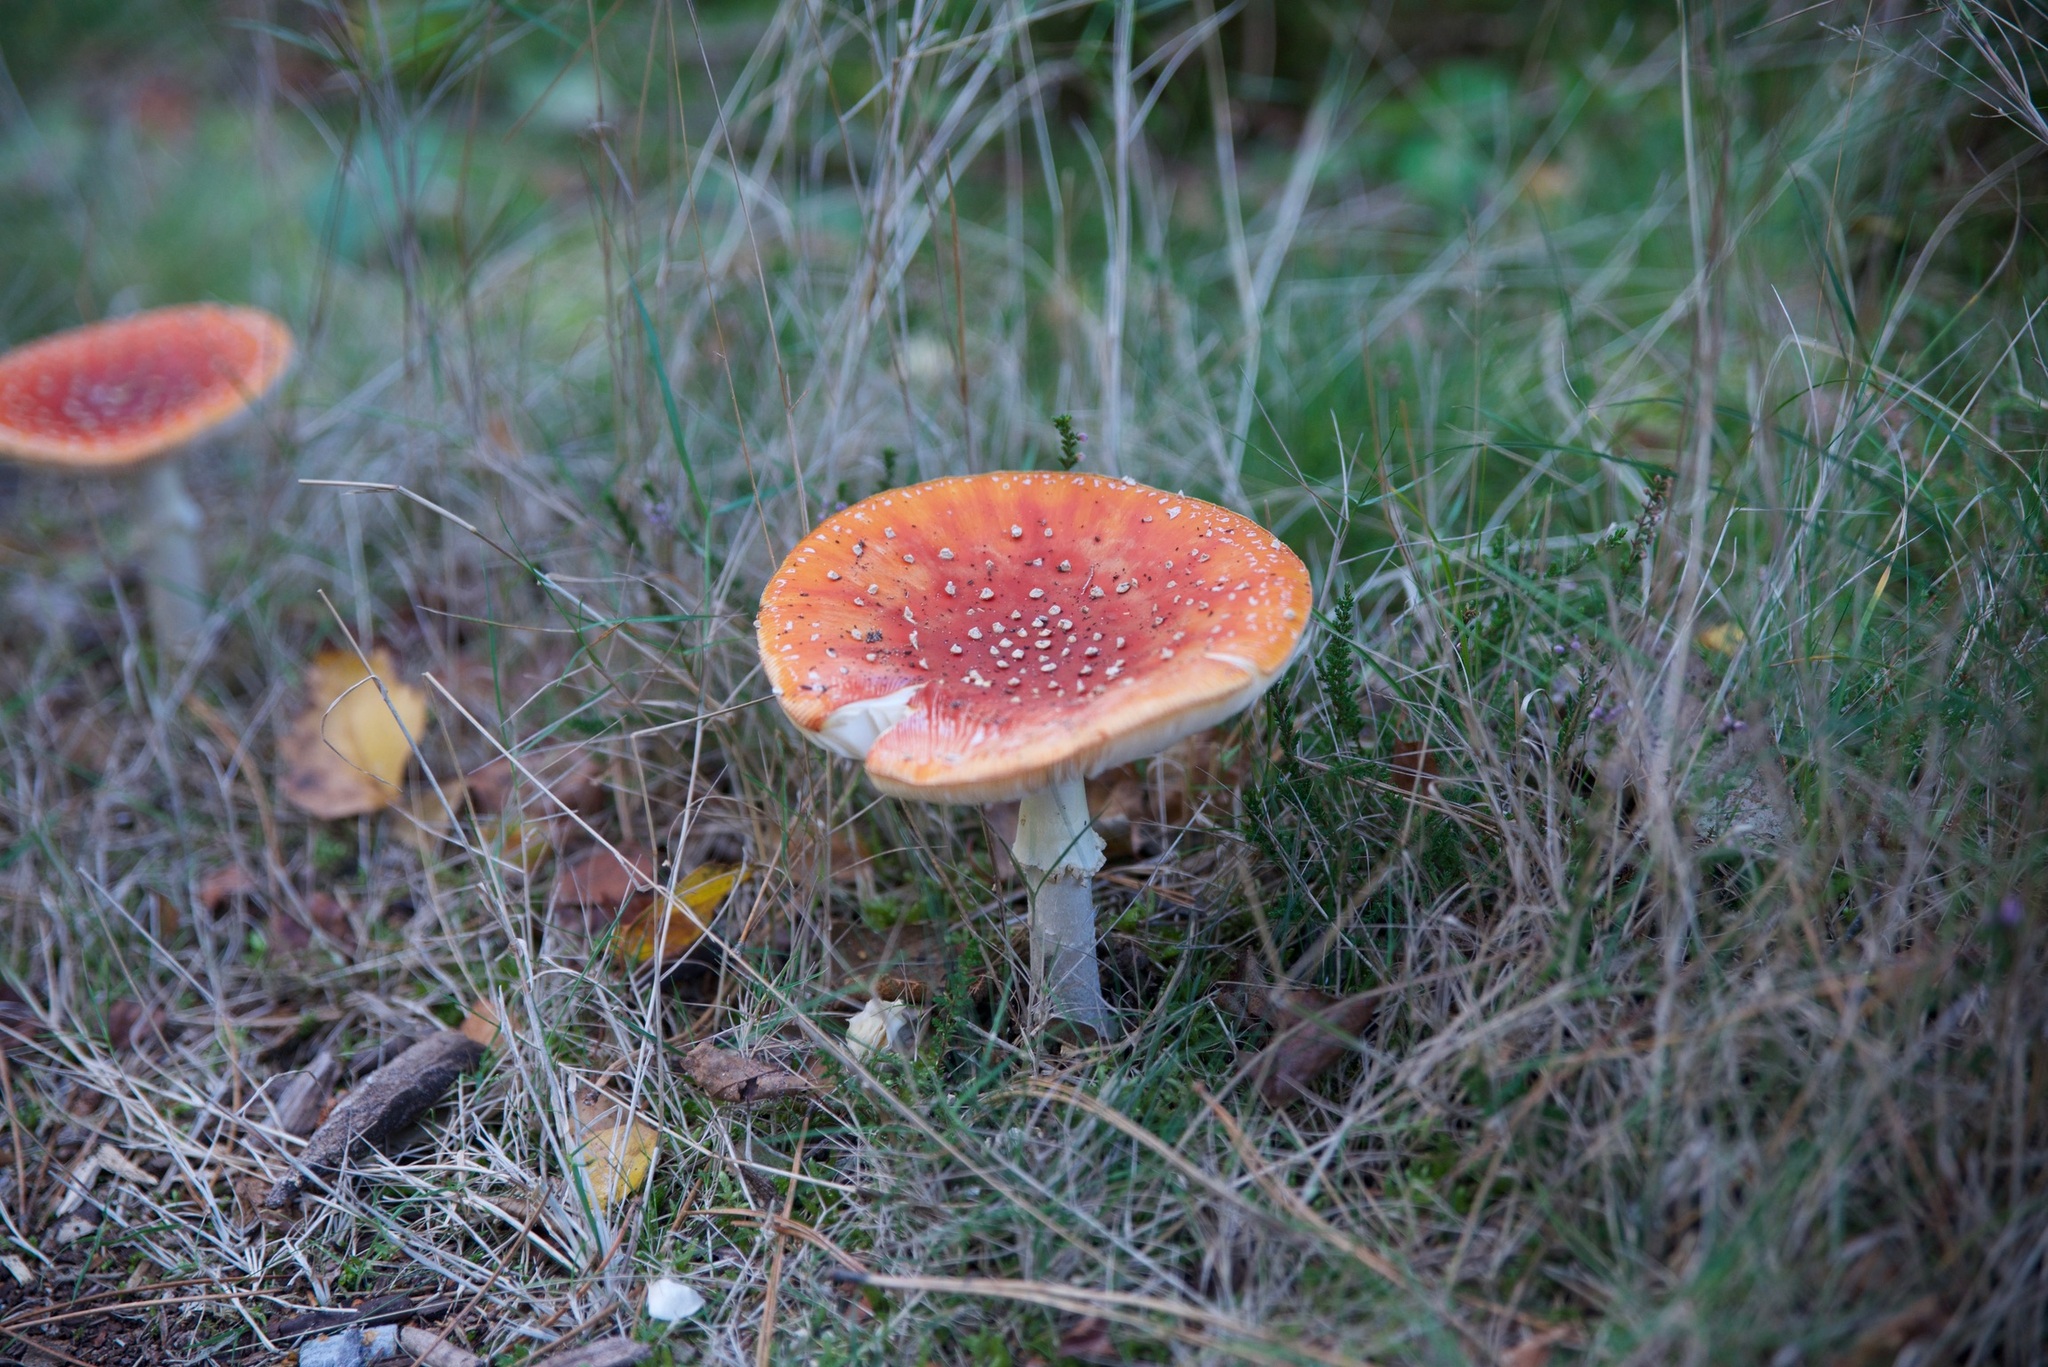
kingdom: Fungi
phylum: Basidiomycota
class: Agaricomycetes
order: Agaricales
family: Amanitaceae
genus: Amanita
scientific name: Amanita muscaria
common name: Fly agaric
